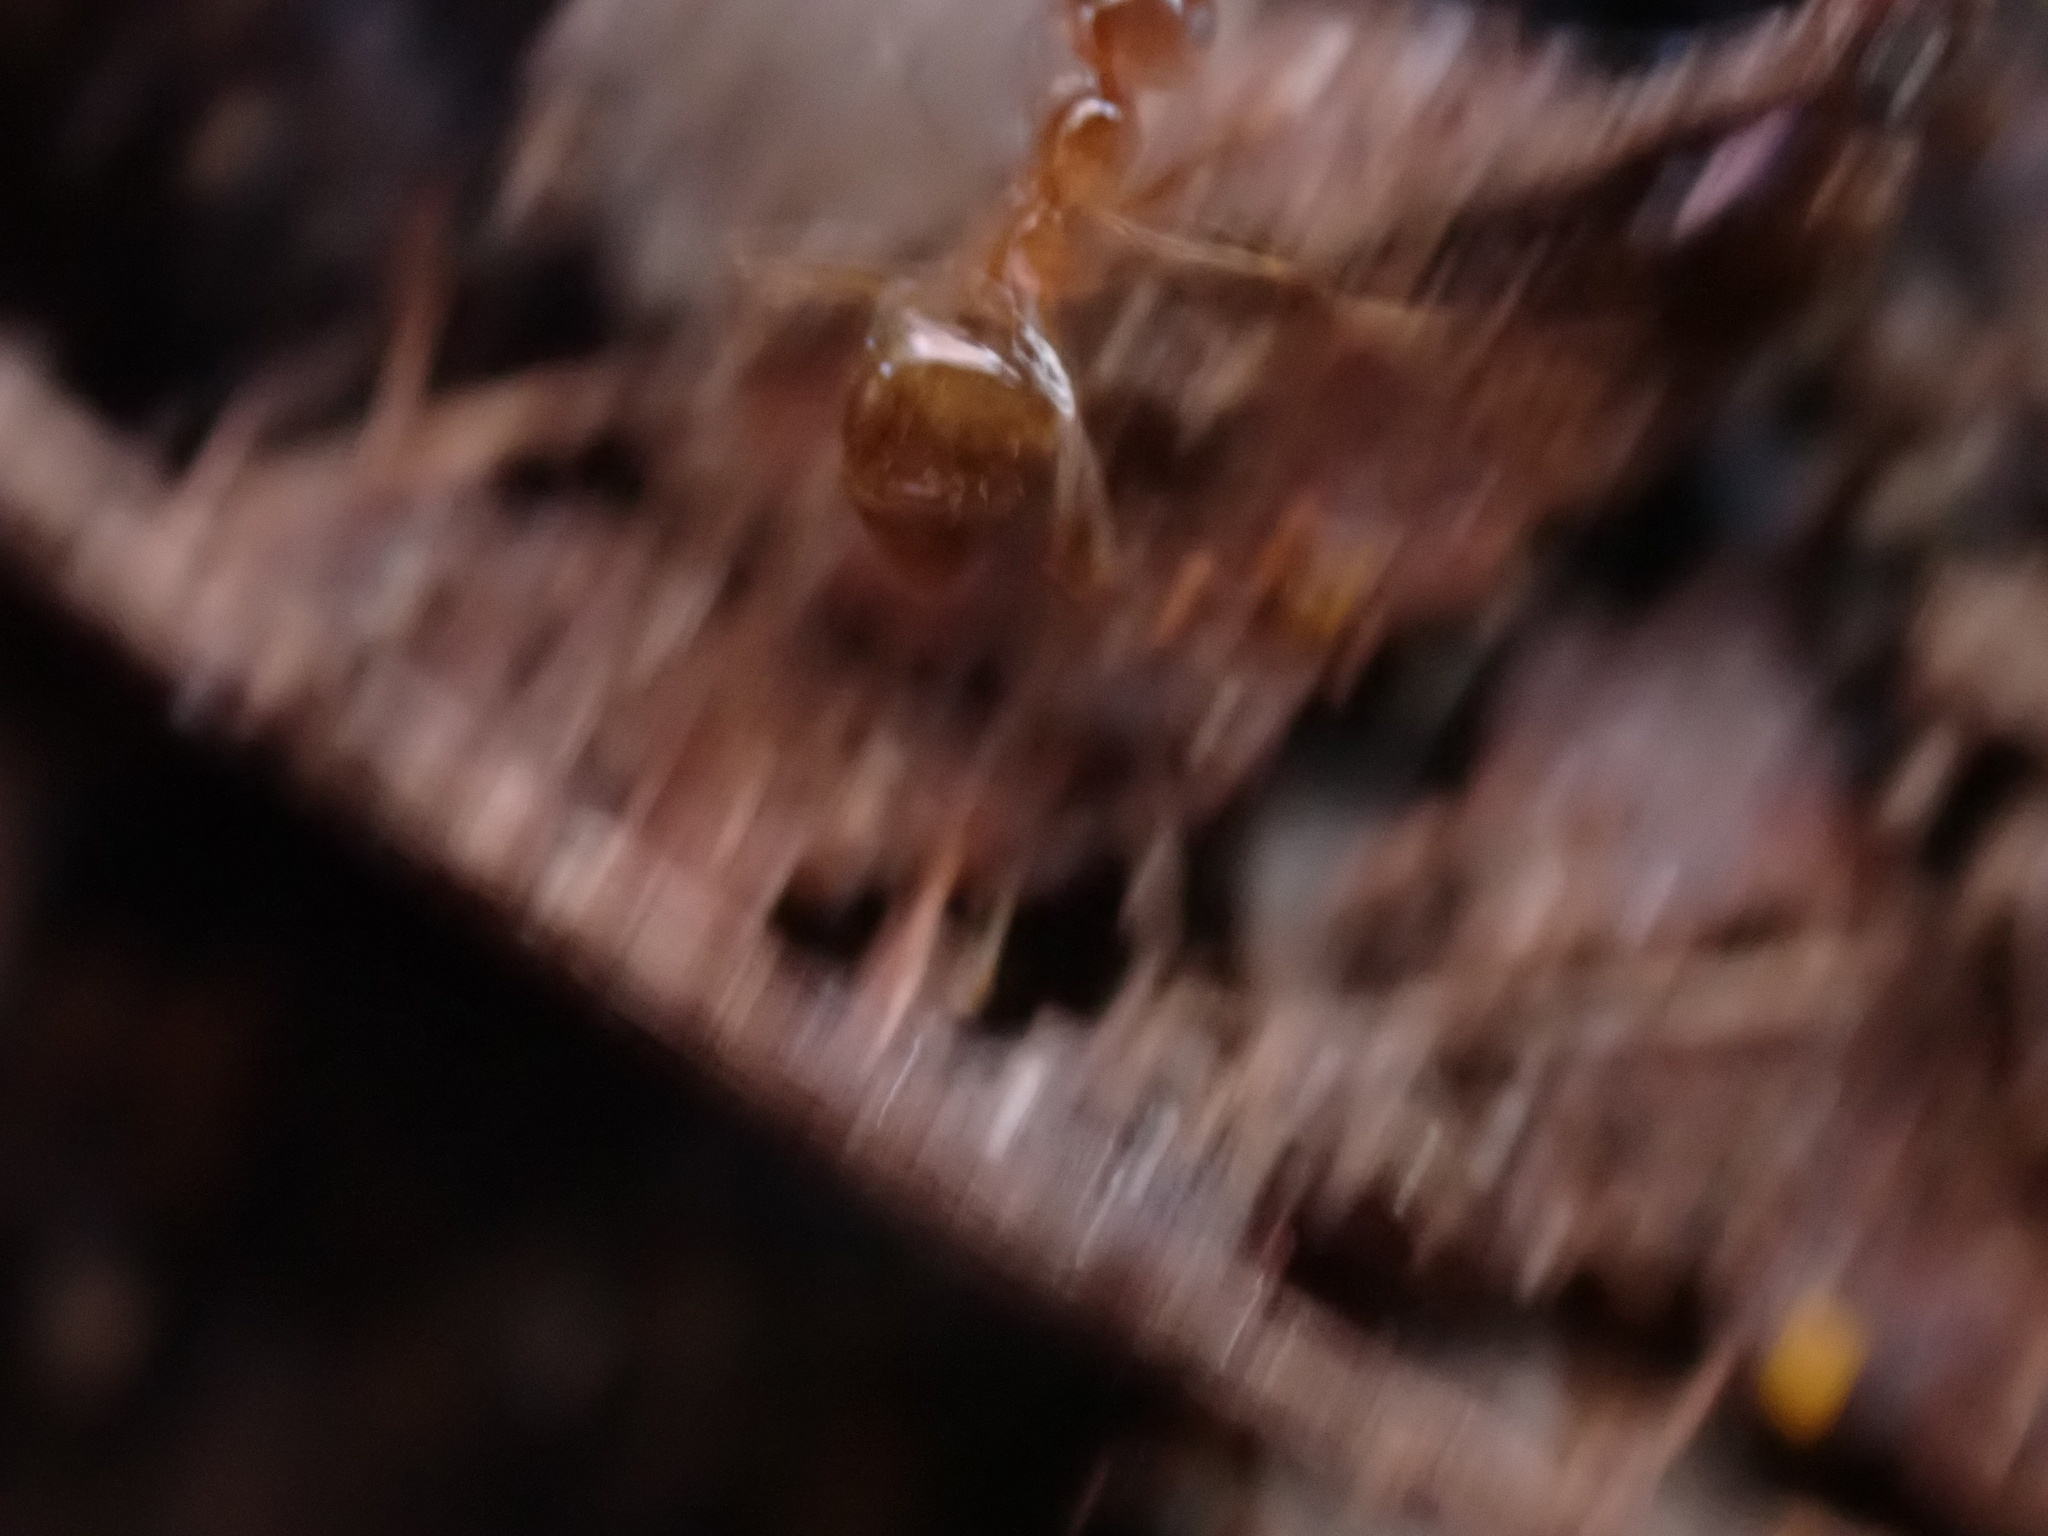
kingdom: Animalia
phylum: Arthropoda
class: Insecta
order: Hymenoptera
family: Formicidae
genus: Prenolepis
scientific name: Prenolepis imparis
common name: Small honey ant
